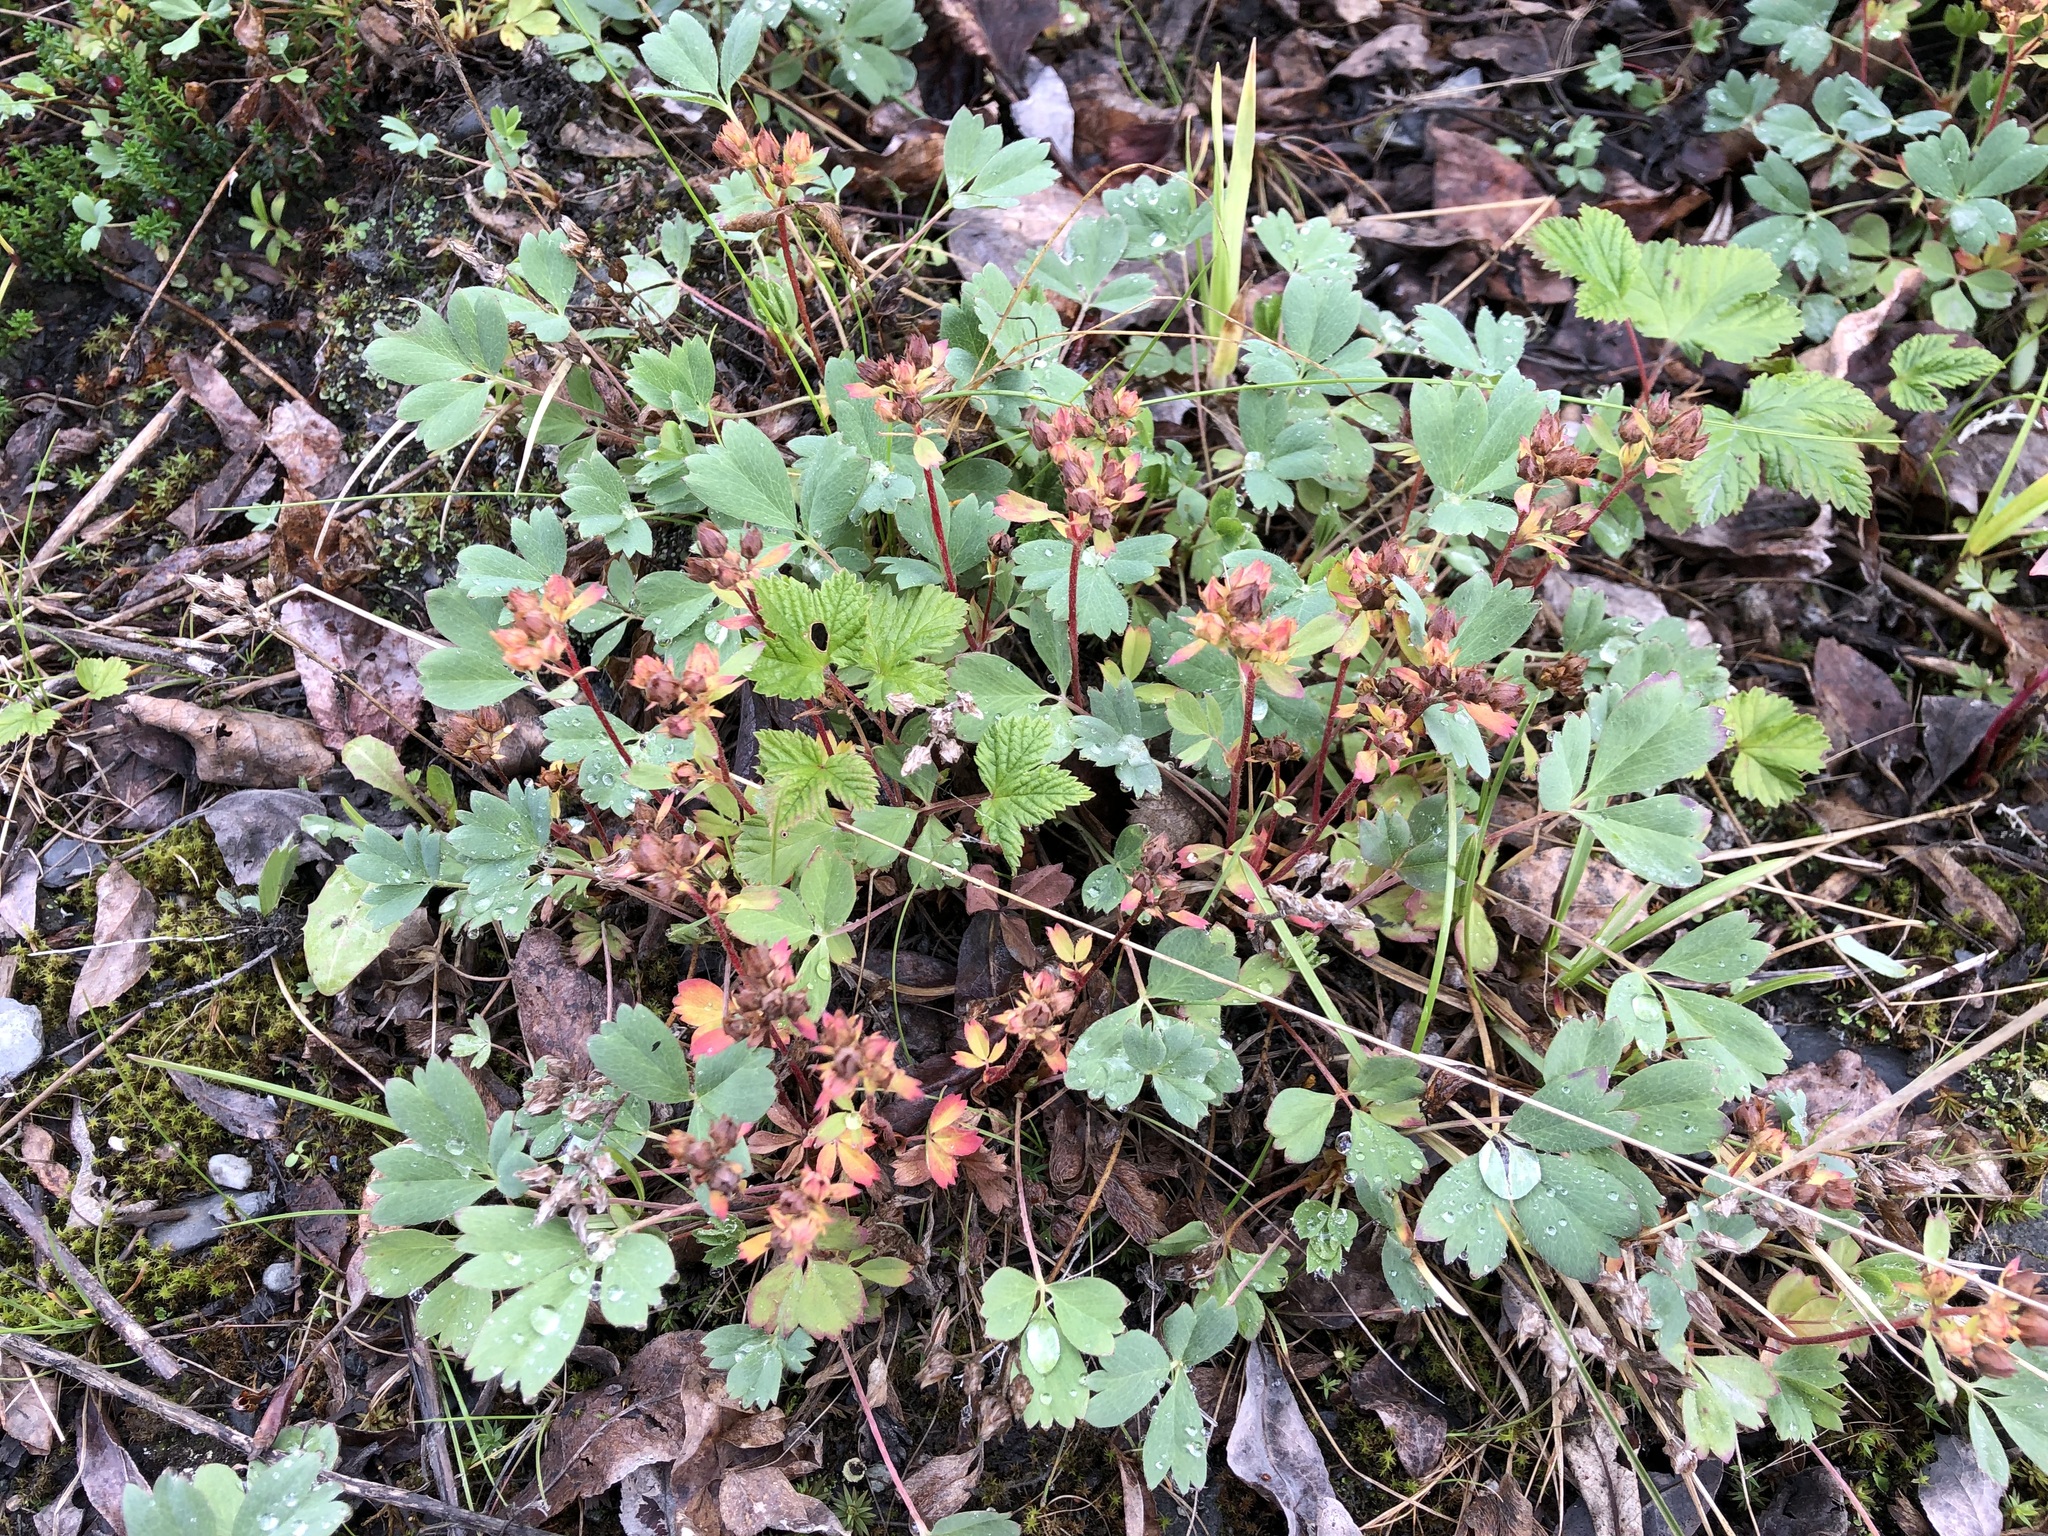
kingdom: Plantae
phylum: Tracheophyta
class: Magnoliopsida
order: Rosales
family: Rosaceae
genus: Sibbaldia
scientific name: Sibbaldia procumbens
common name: Creeping sibbaldia
